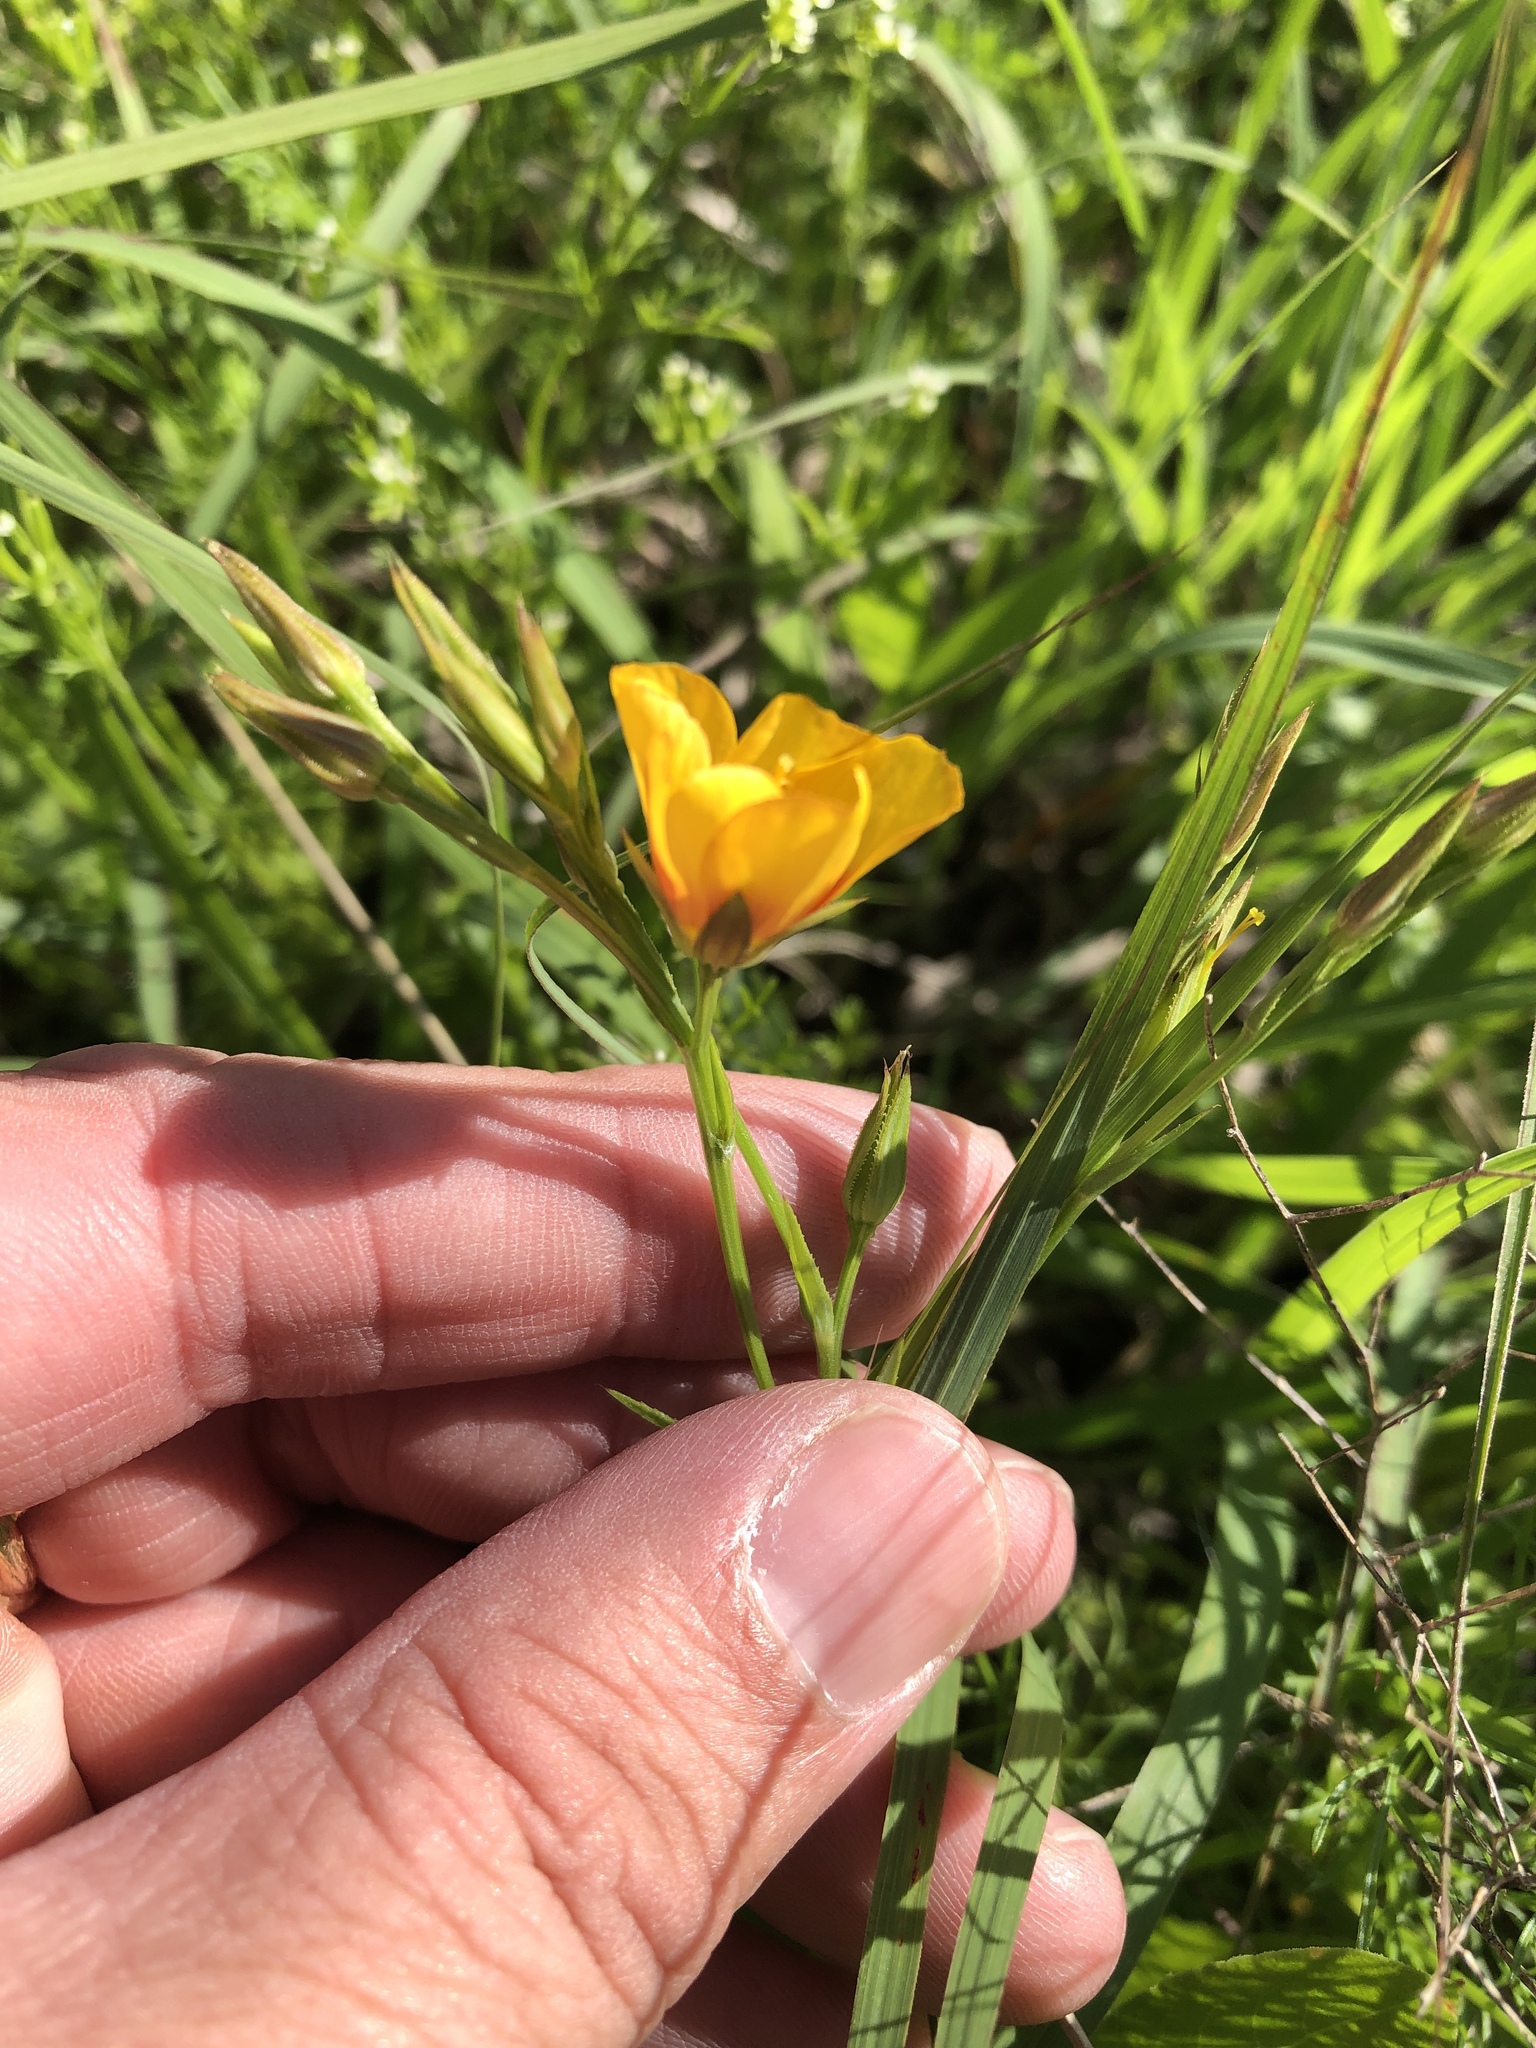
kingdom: Plantae
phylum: Tracheophyta
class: Magnoliopsida
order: Malpighiales
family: Linaceae
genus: Linum
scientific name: Linum rigidum
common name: Stiff-stem flax
